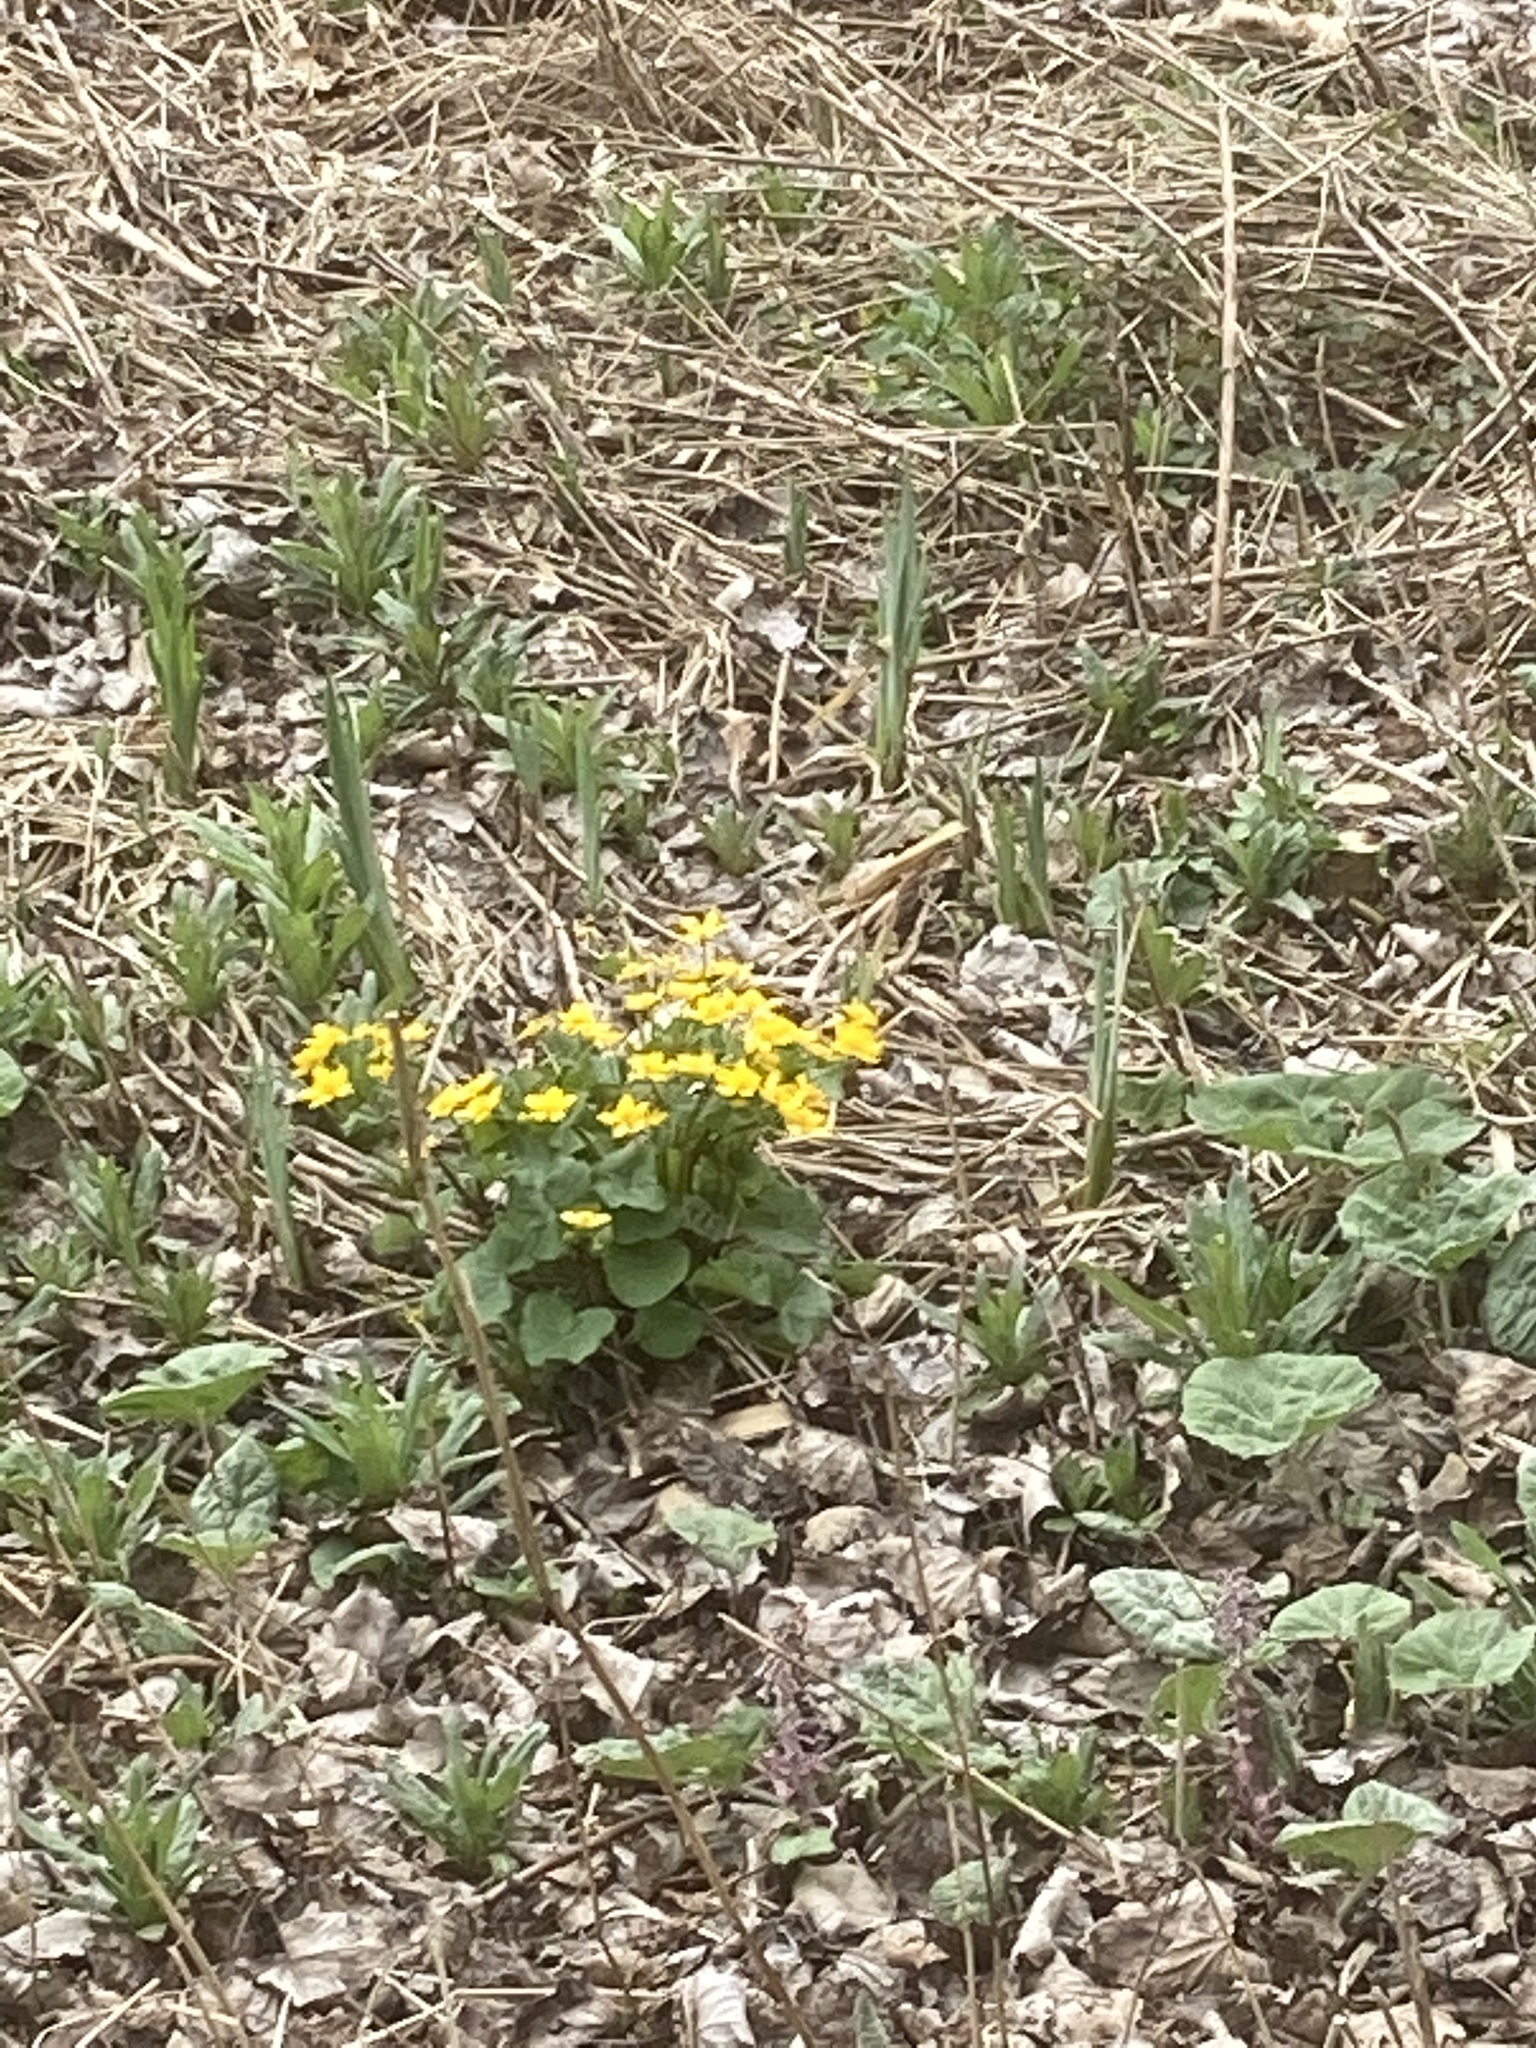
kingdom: Plantae
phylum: Tracheophyta
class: Magnoliopsida
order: Ranunculales
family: Ranunculaceae
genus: Caltha
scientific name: Caltha palustris
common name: Marsh marigold
